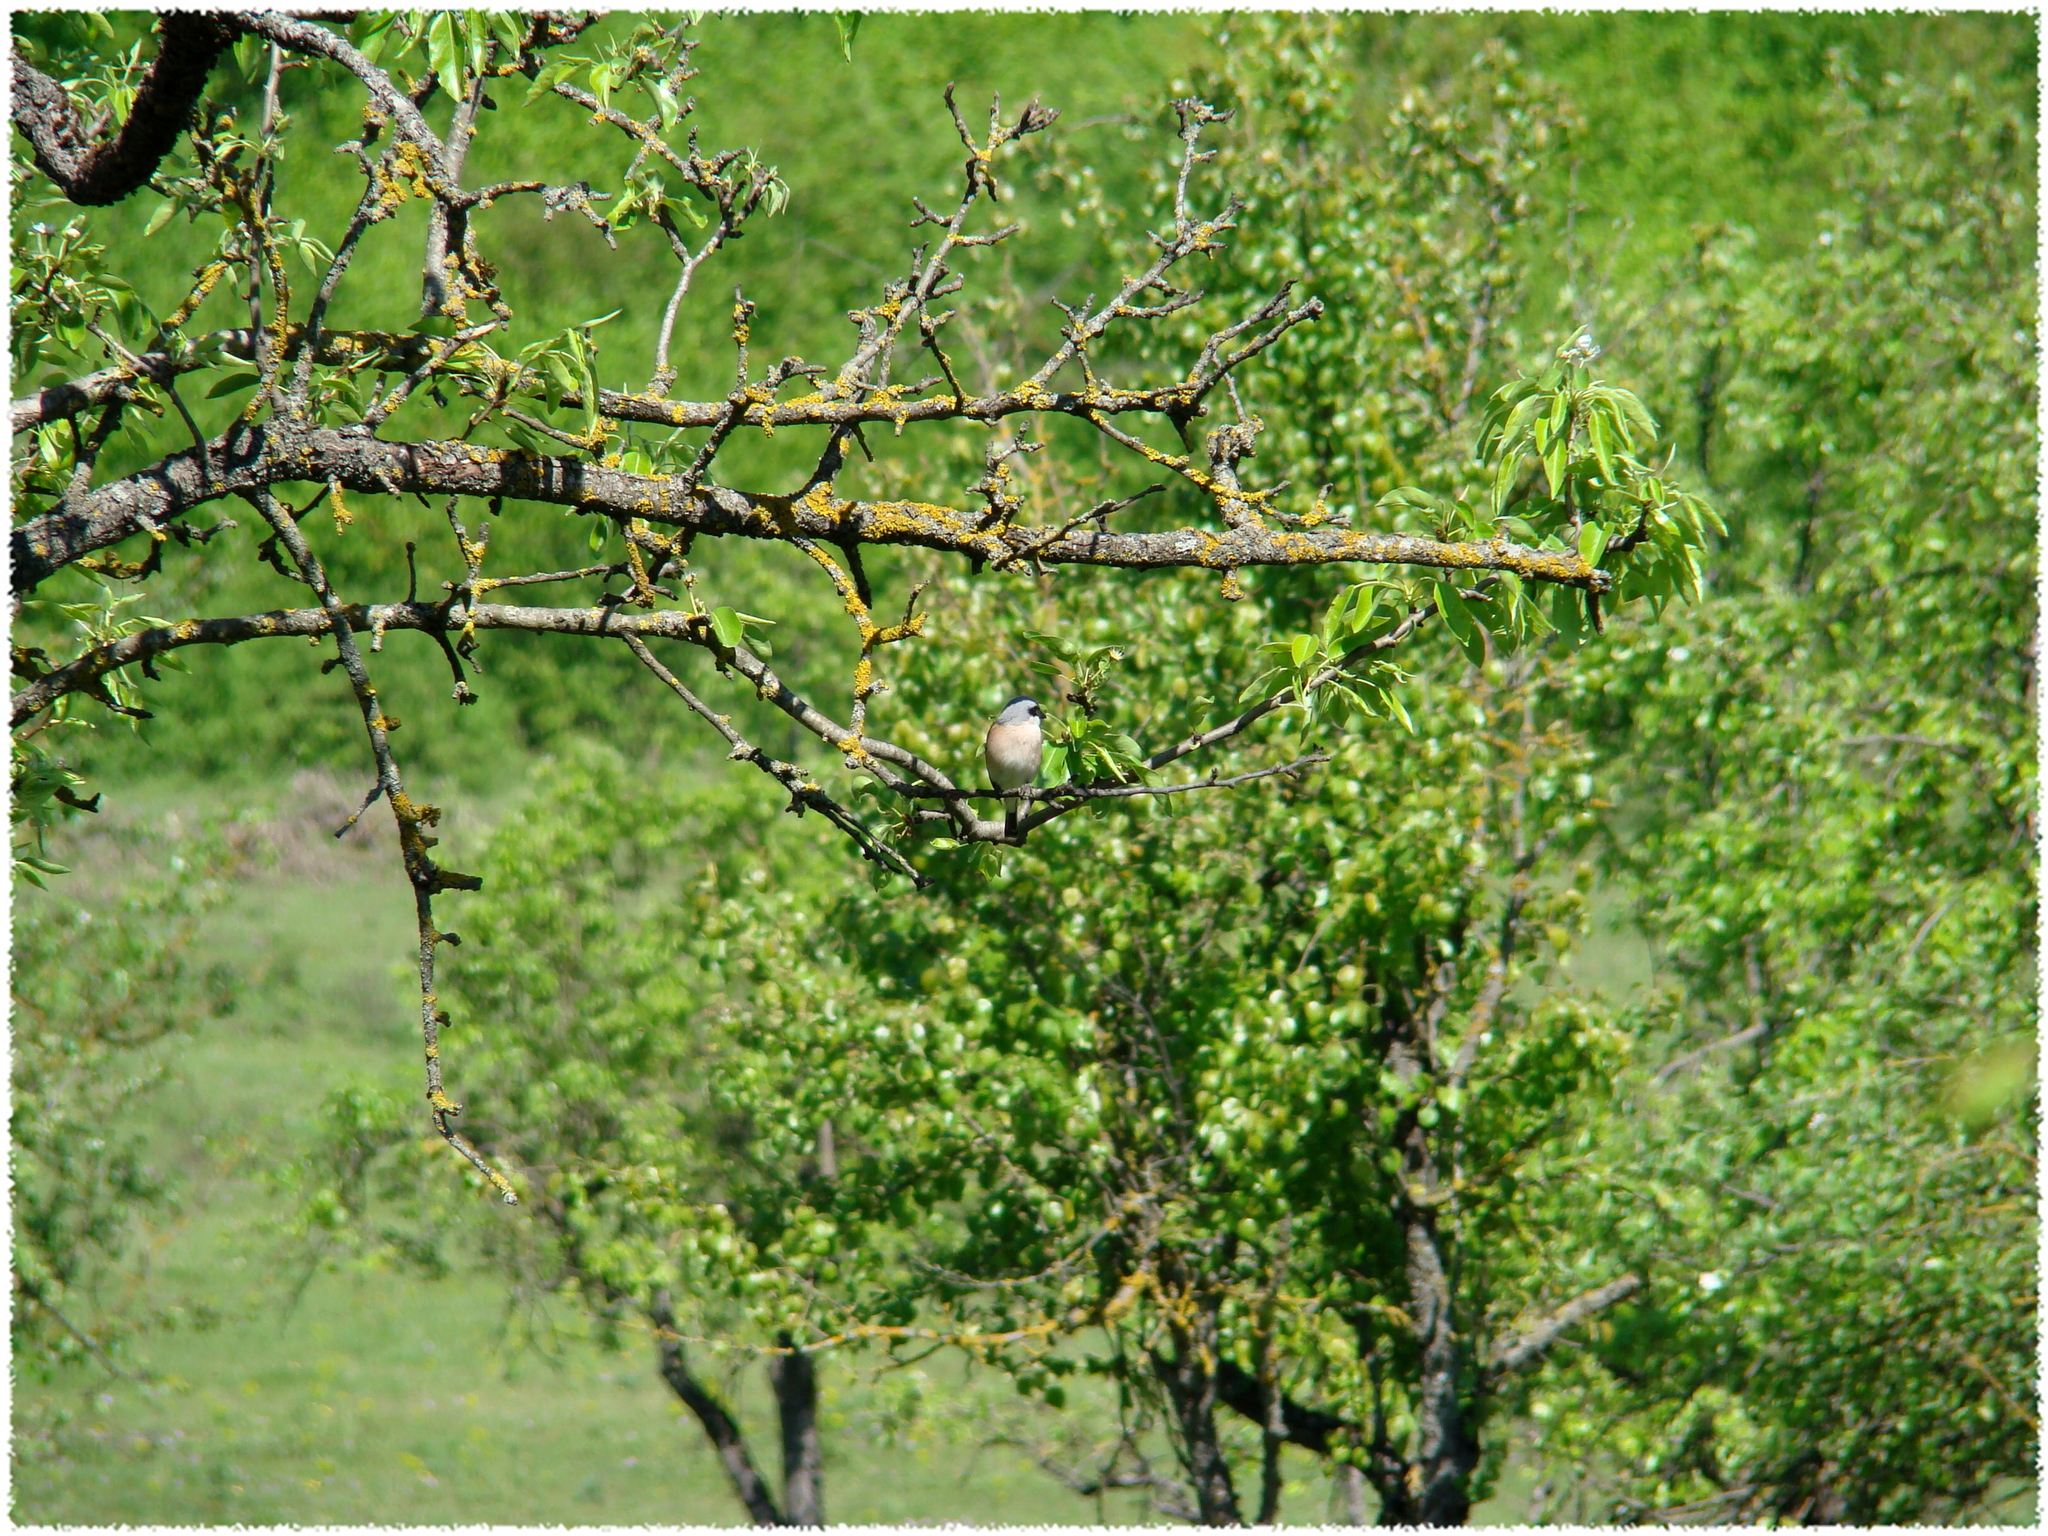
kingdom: Animalia
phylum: Chordata
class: Aves
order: Passeriformes
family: Laniidae
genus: Lanius
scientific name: Lanius collurio
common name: Red-backed shrike
